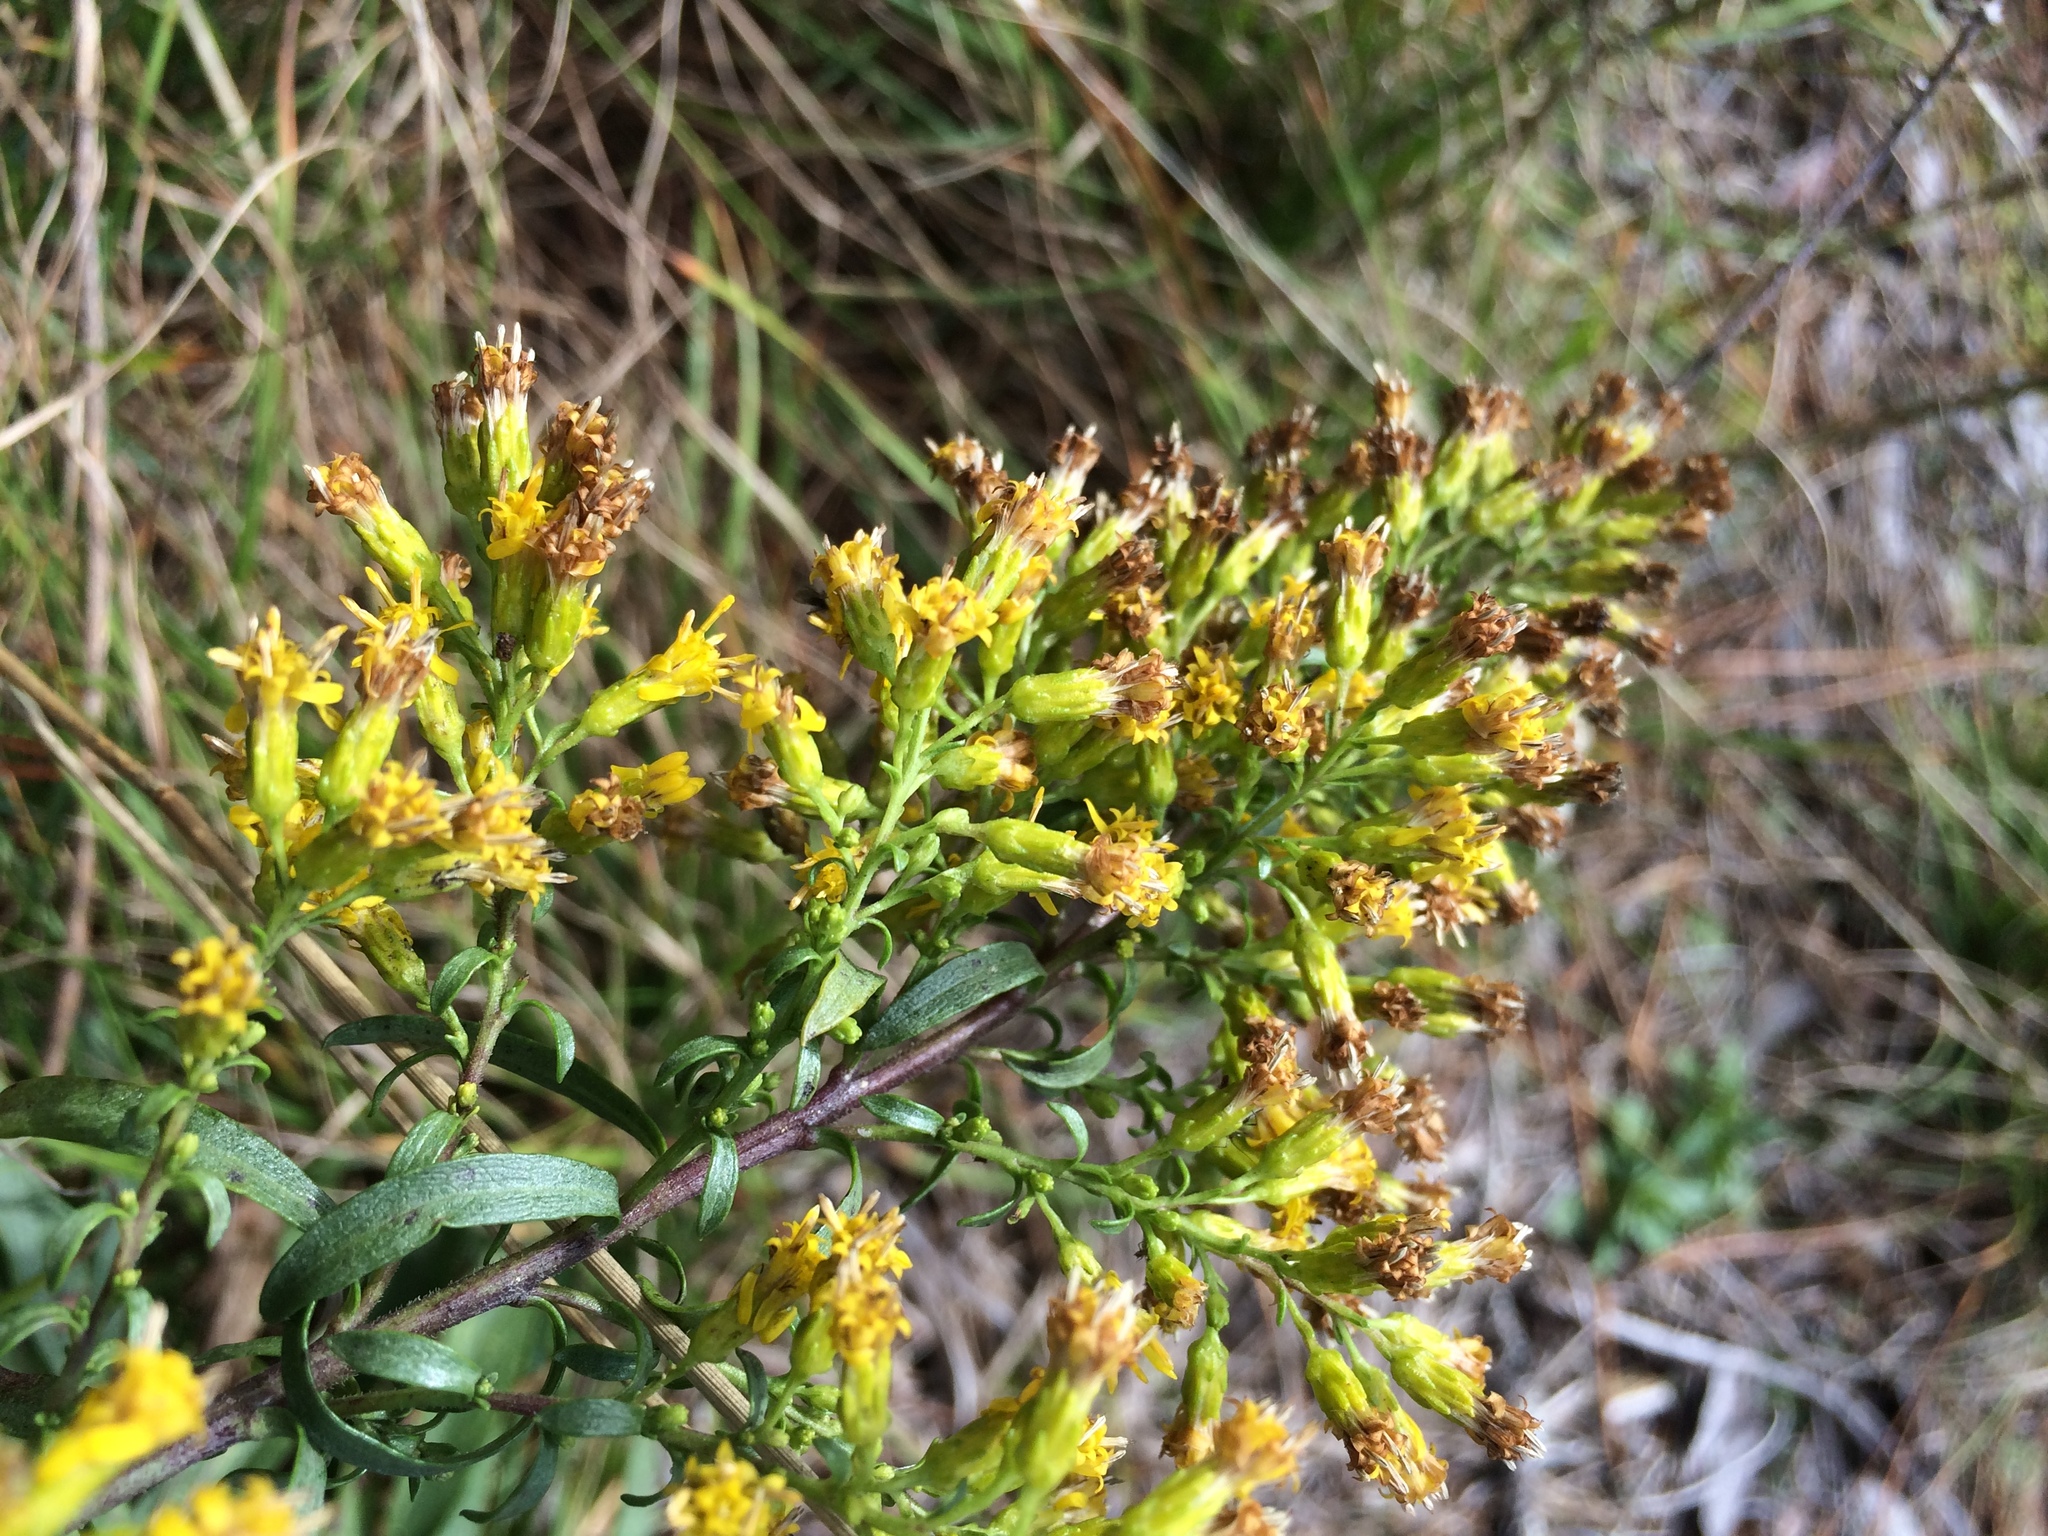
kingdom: Plantae
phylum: Tracheophyta
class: Magnoliopsida
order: Asterales
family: Asteraceae
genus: Solidago
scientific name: Solidago randii
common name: Rand's goldenrod
